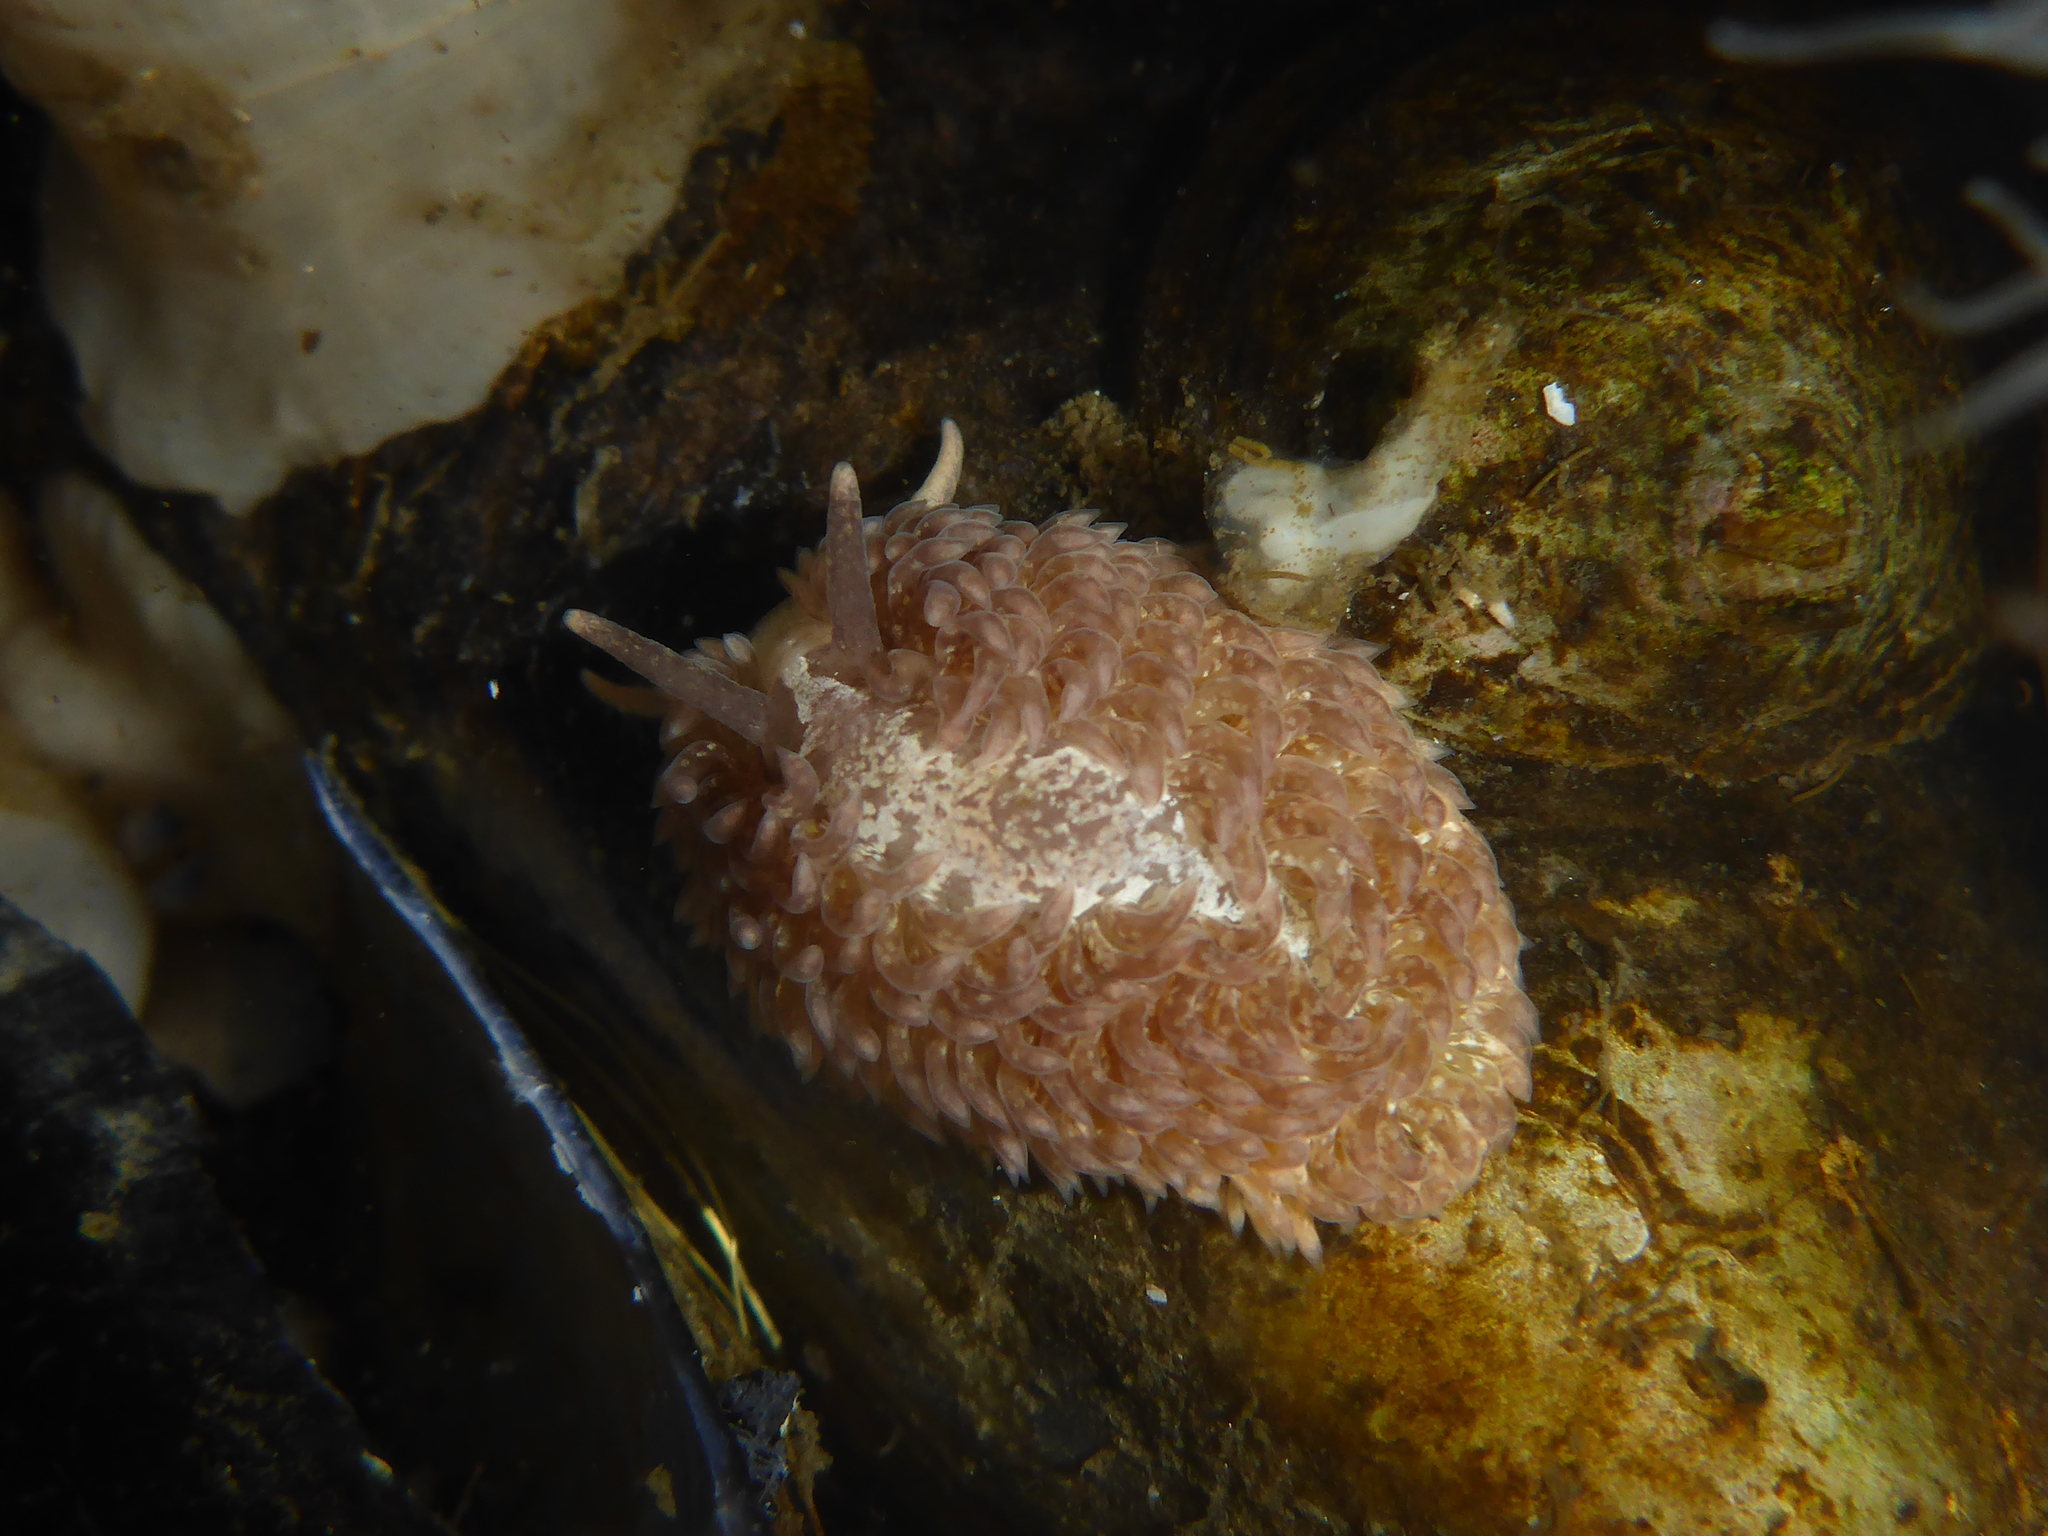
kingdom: Animalia
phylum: Mollusca
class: Gastropoda
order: Nudibranchia
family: Aeolidiidae
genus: Aeolidia
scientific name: Aeolidia loui
